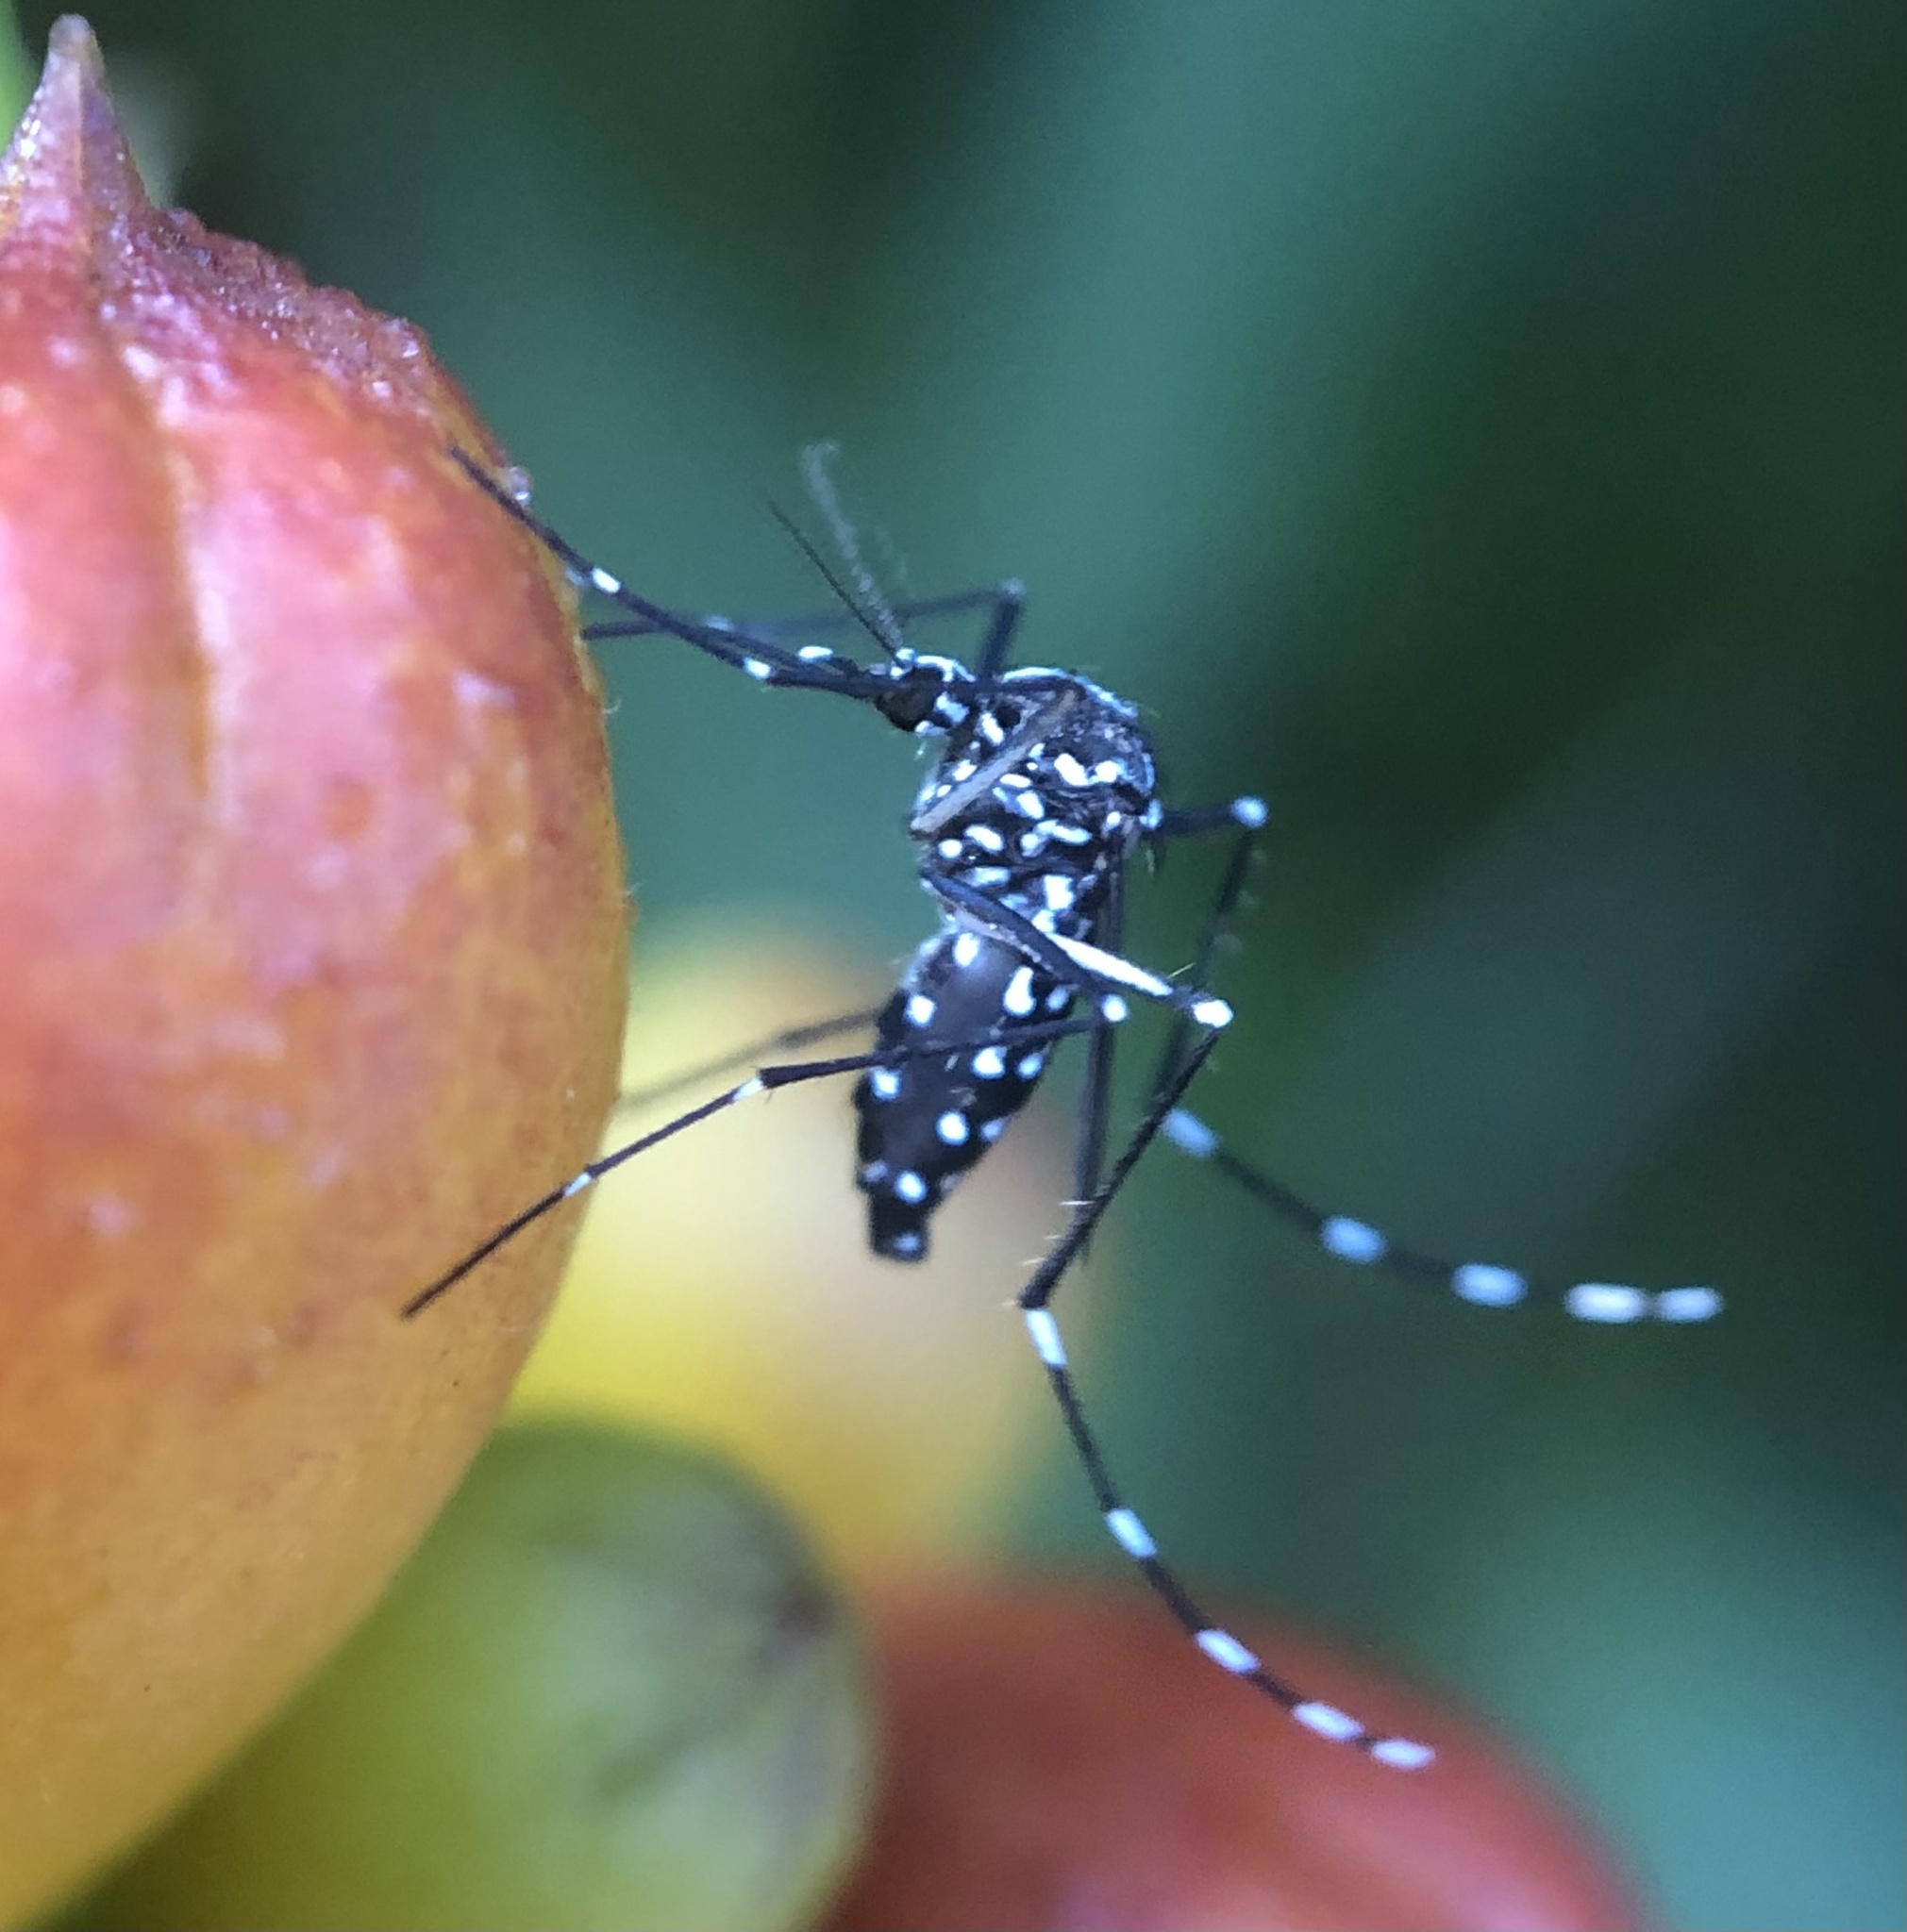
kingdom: Animalia
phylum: Arthropoda
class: Insecta
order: Diptera
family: Culicidae
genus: Aedes
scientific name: Aedes albopictus
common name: Tiger mosquito
